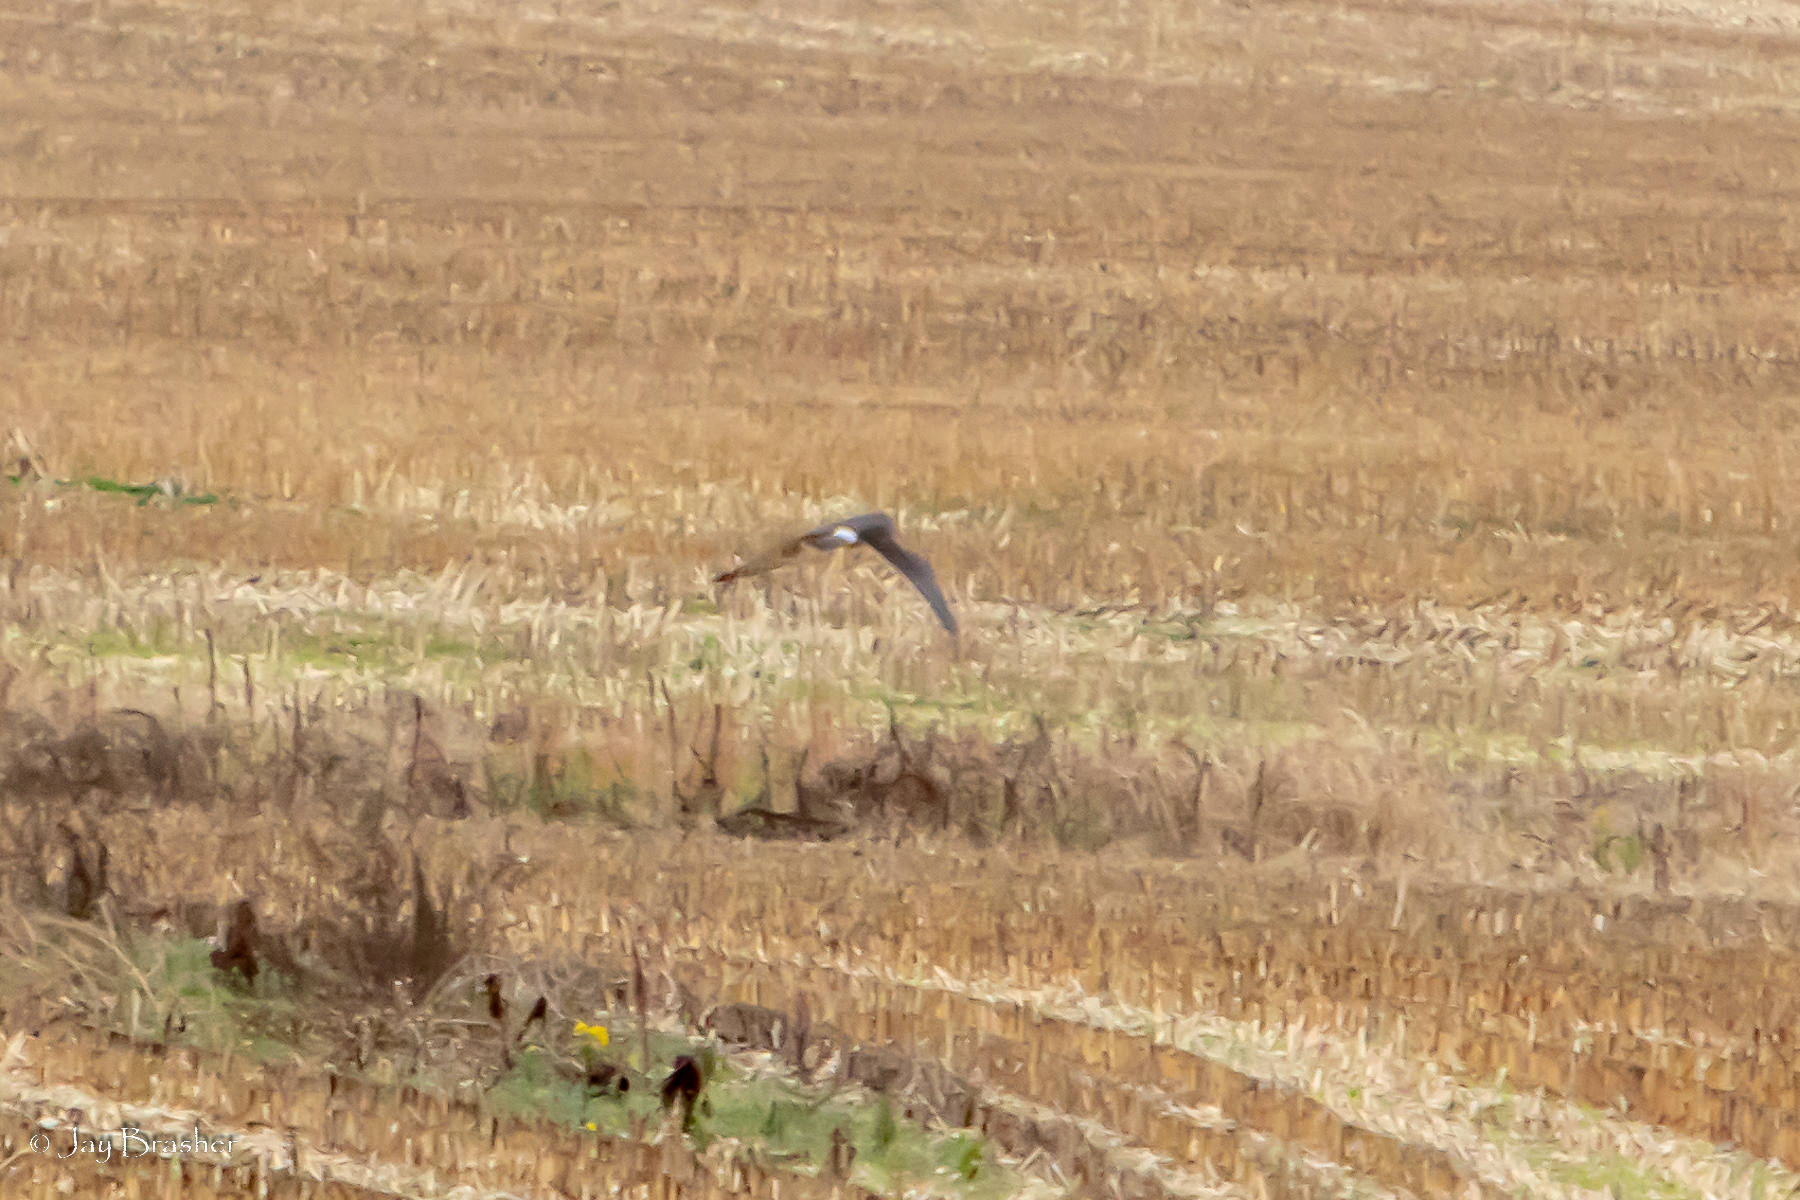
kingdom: Animalia
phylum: Chordata
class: Aves
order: Accipitriformes
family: Accipitridae
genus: Circus
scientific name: Circus cyaneus
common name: Hen harrier
